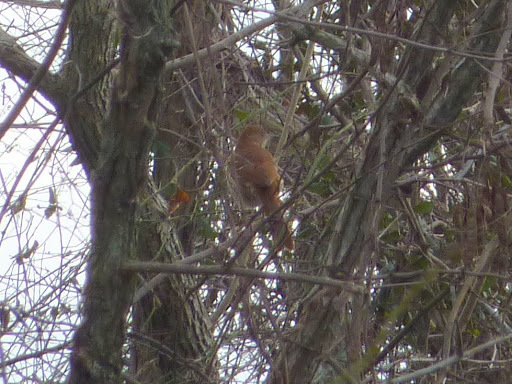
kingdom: Animalia
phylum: Chordata
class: Aves
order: Passeriformes
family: Mimidae
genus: Toxostoma
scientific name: Toxostoma rufum
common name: Brown thrasher
